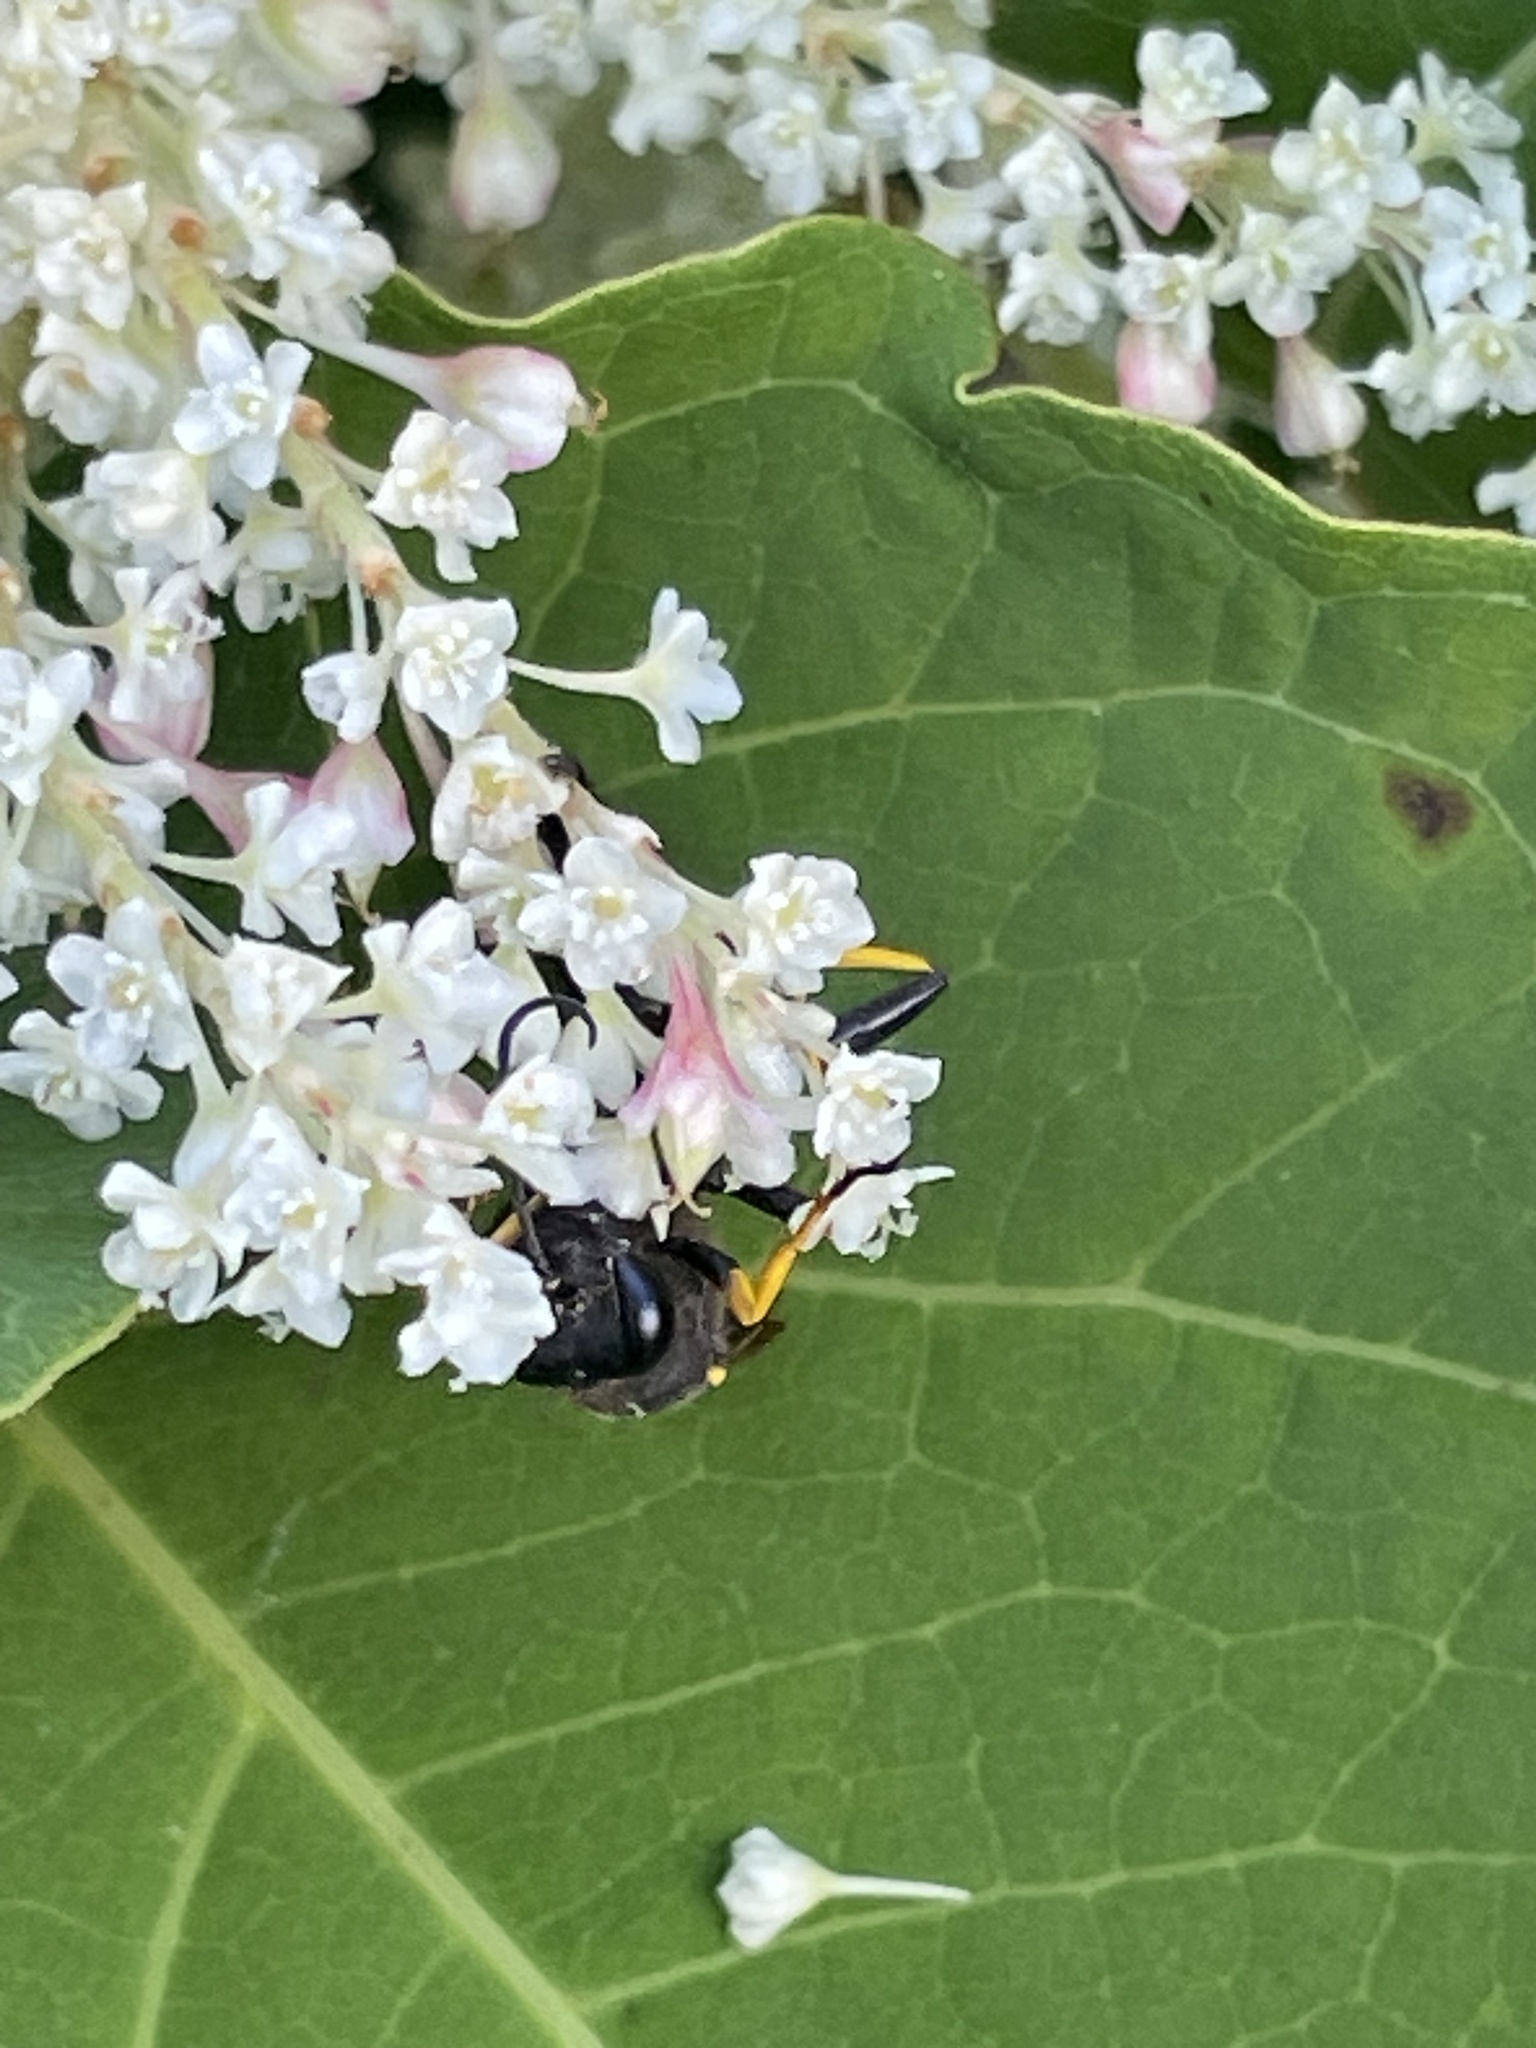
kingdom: Animalia
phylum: Arthropoda
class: Insecta
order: Hymenoptera
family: Sphecidae
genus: Sceliphron
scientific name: Sceliphron caementarium
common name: Mud dauber
